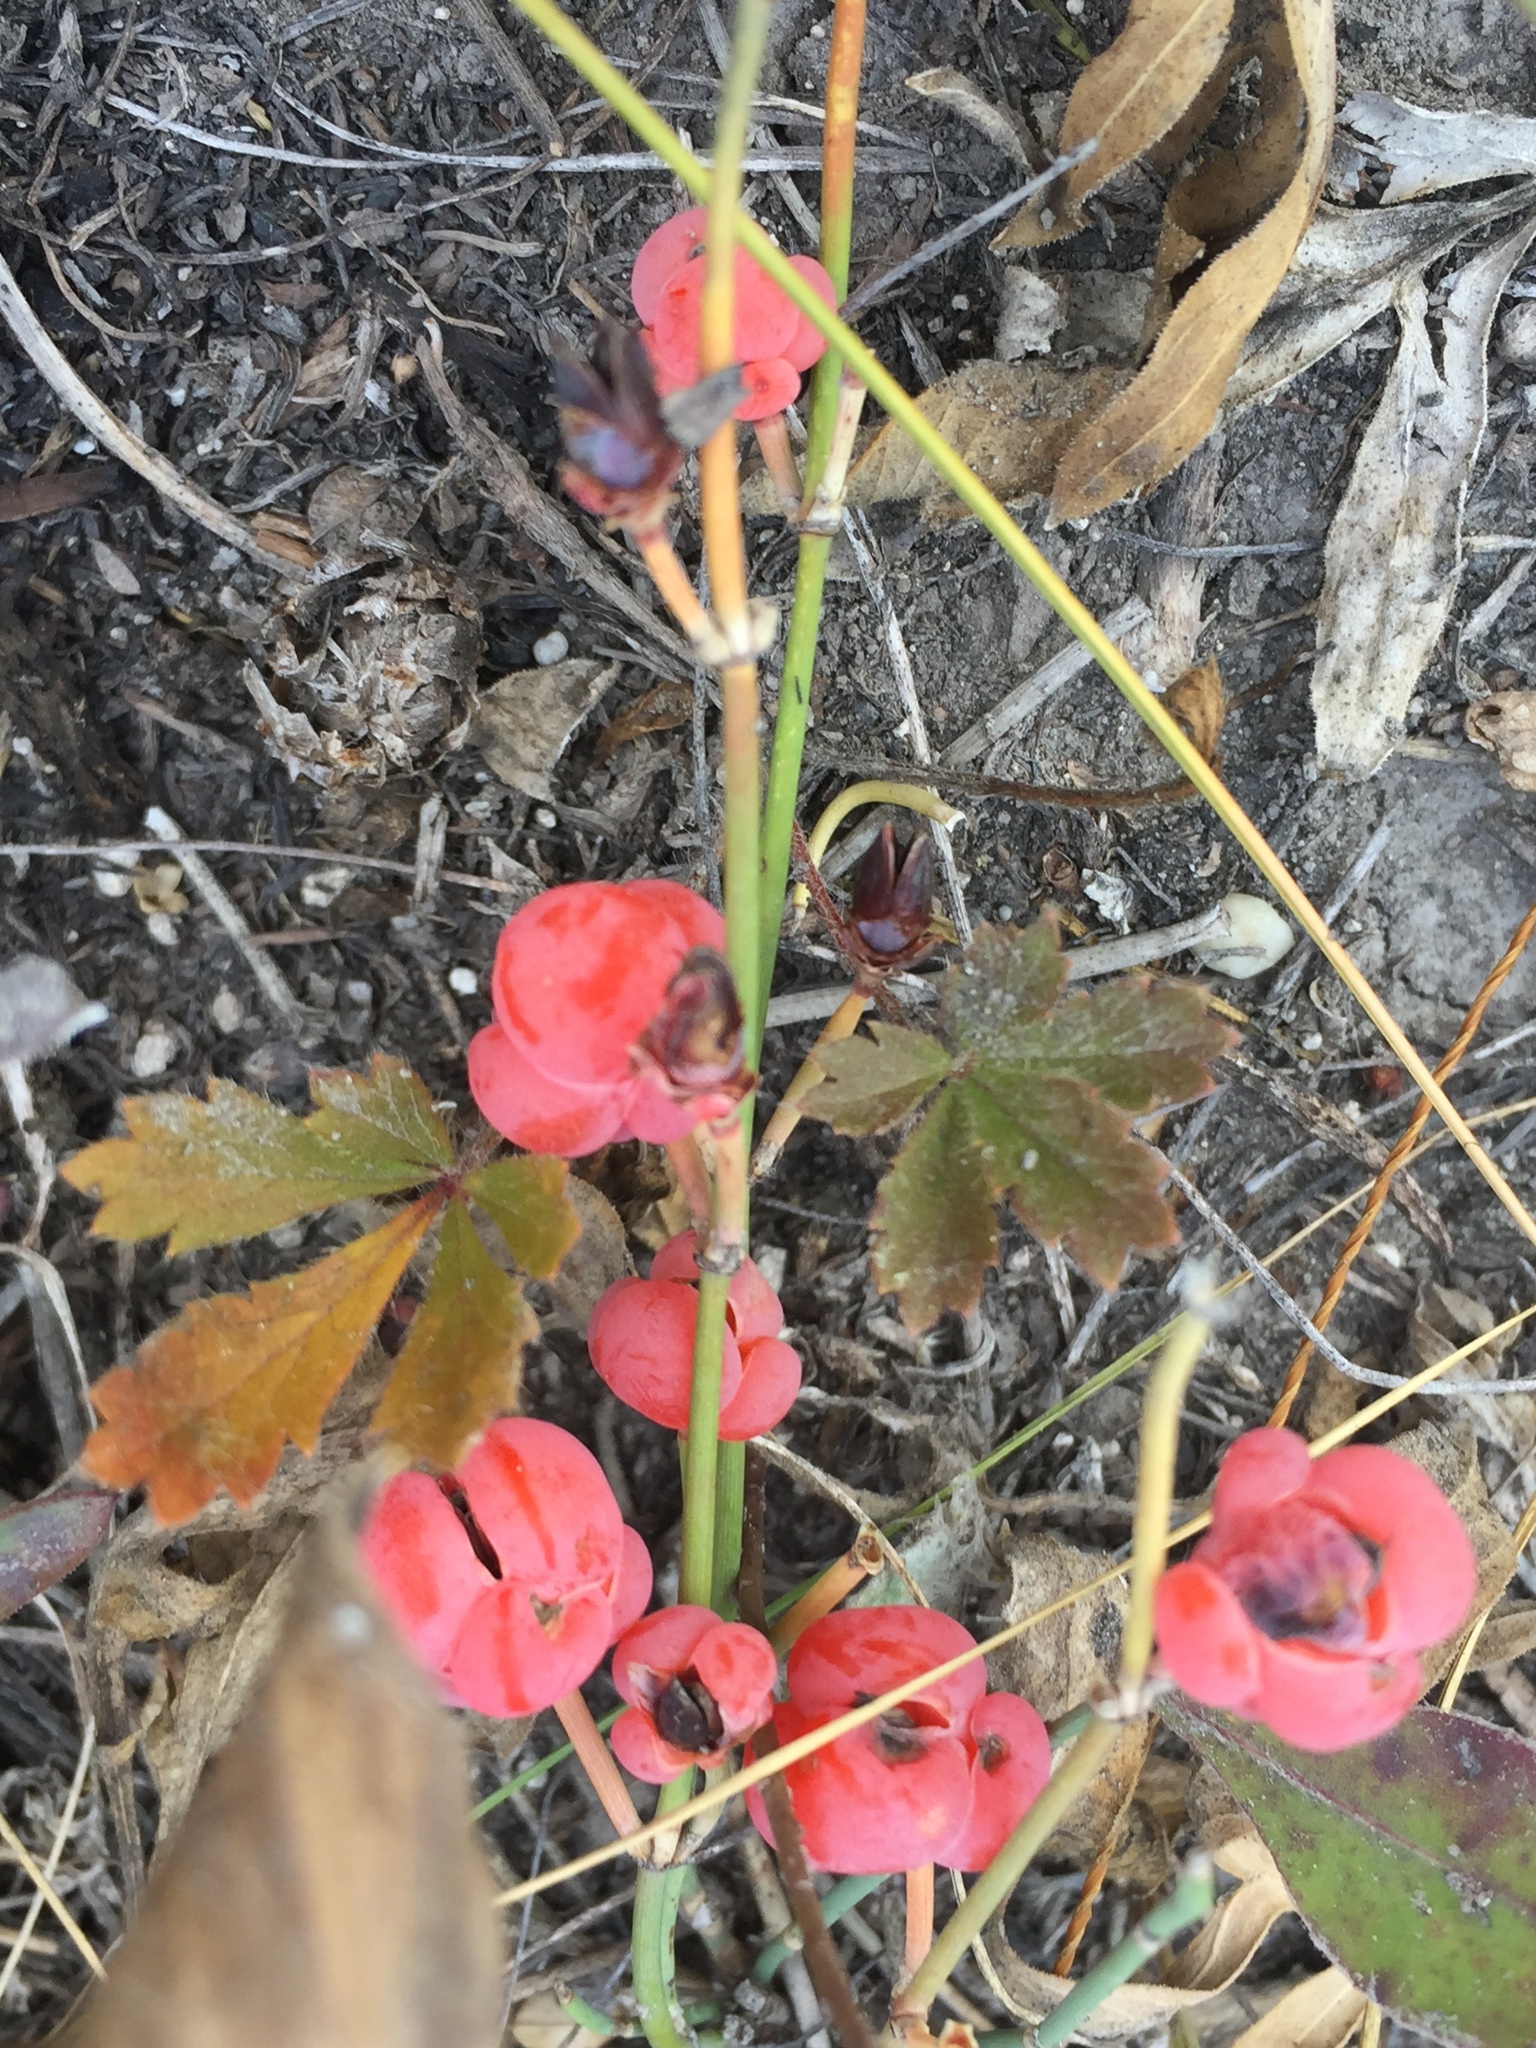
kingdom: Plantae
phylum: Tracheophyta
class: Gnetopsida
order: Ephedrales
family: Ephedraceae
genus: Ephedra
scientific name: Ephedra distachya
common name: Sea grape
